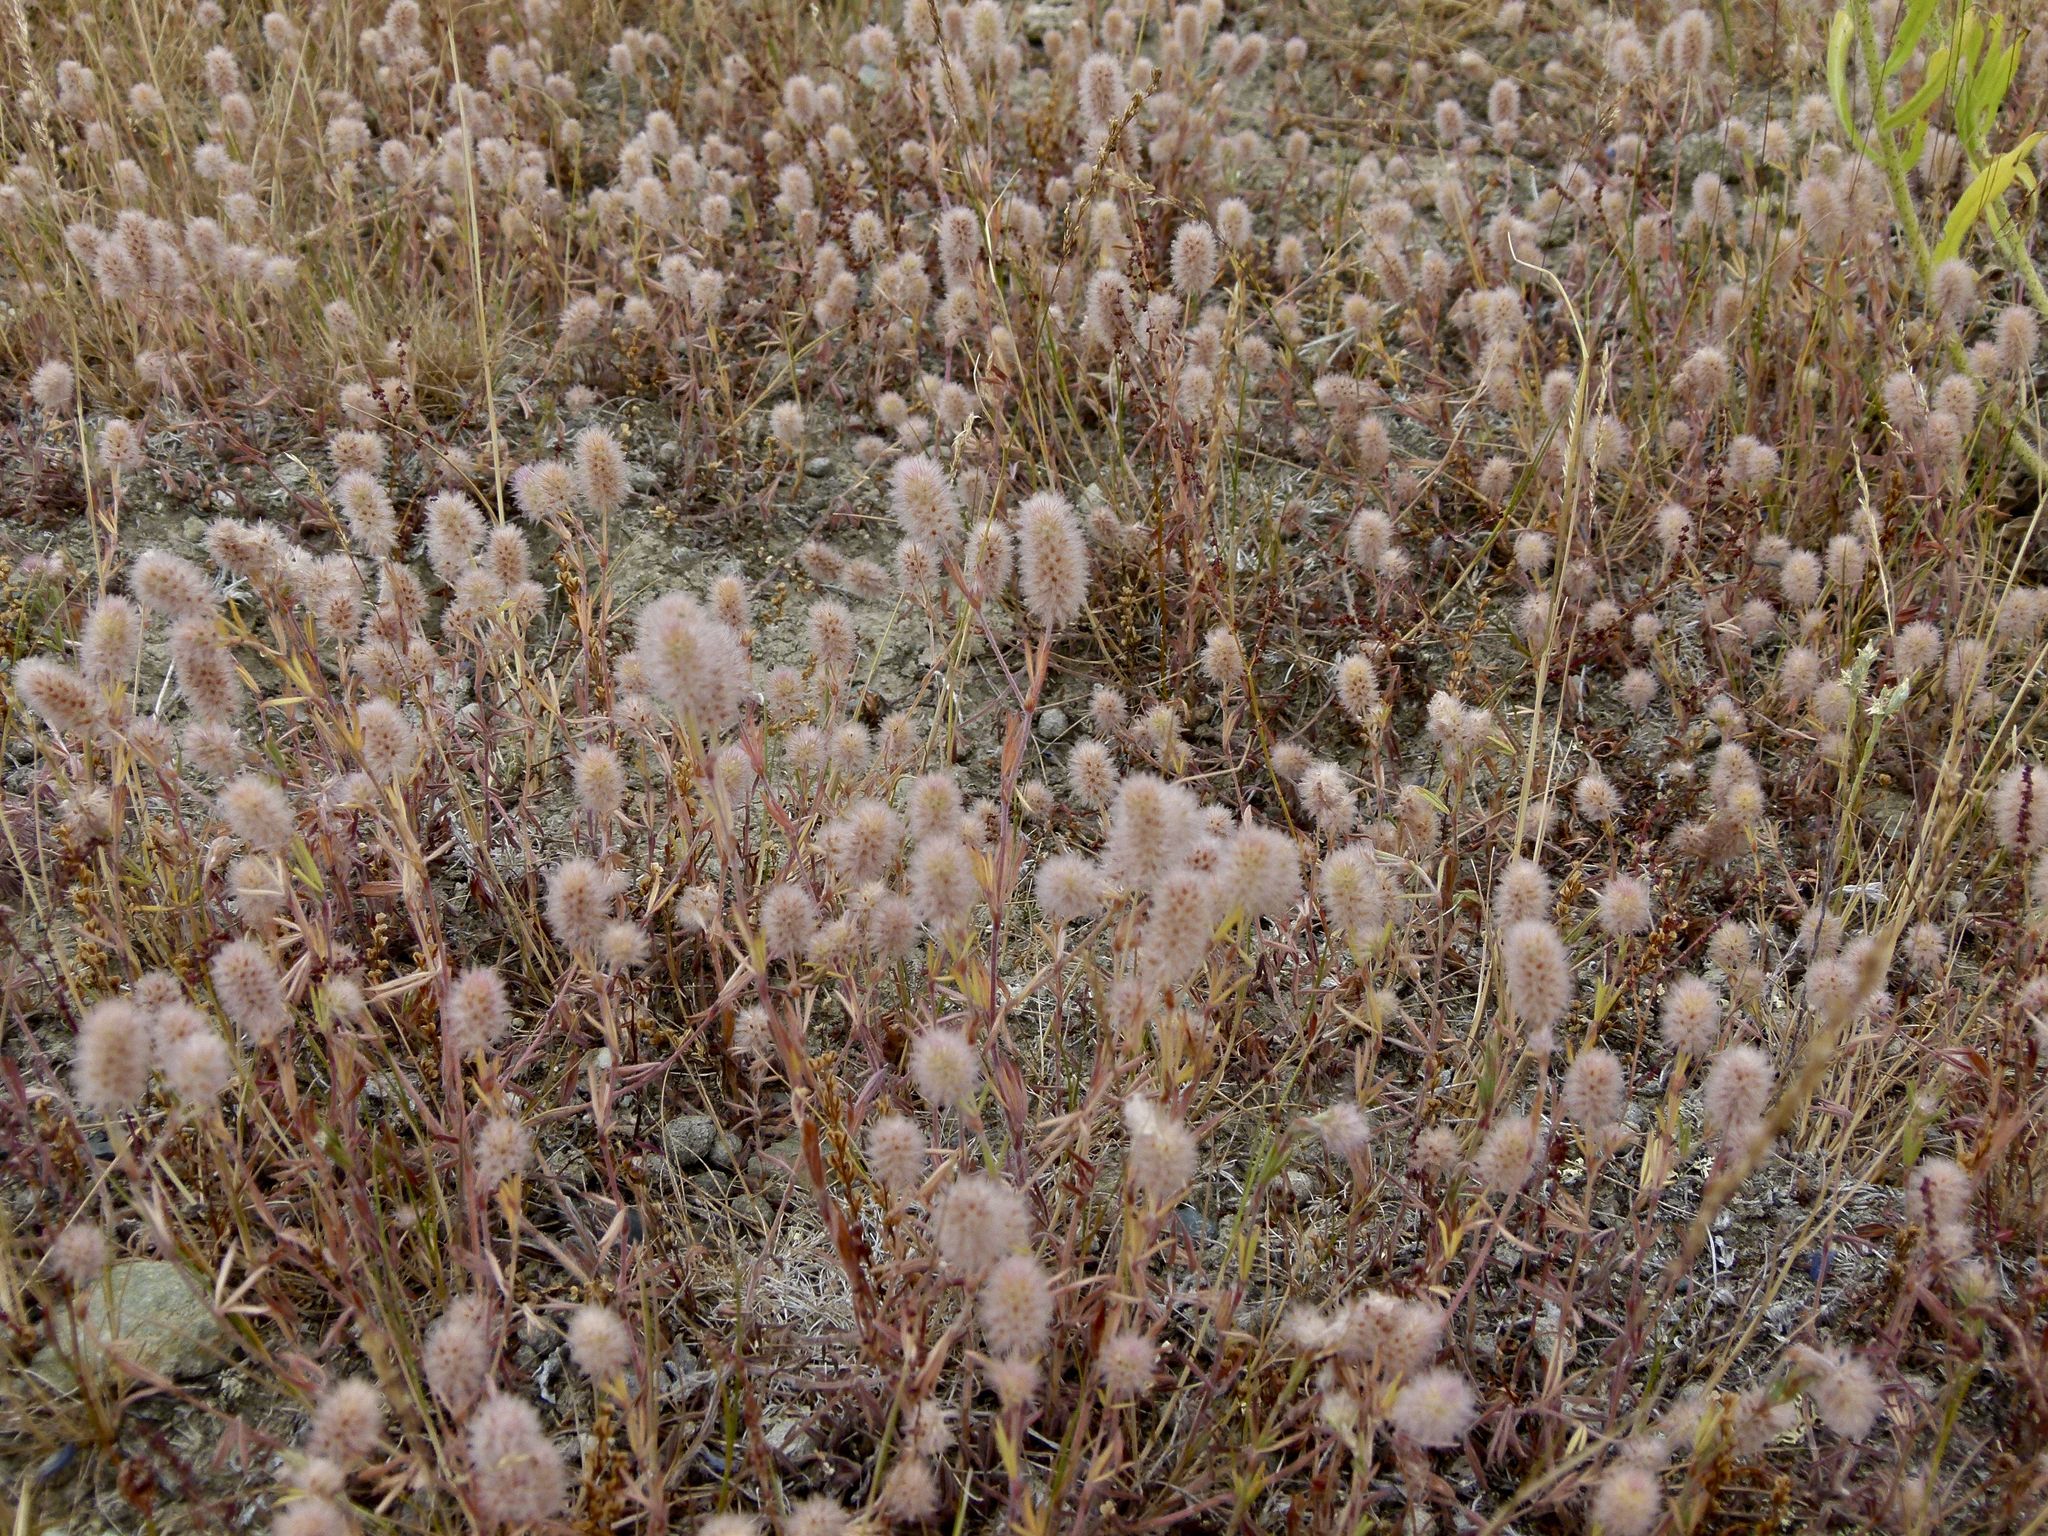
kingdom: Plantae
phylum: Tracheophyta
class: Magnoliopsida
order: Fabales
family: Fabaceae
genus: Trifolium
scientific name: Trifolium arvense
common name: Hare's-foot clover
